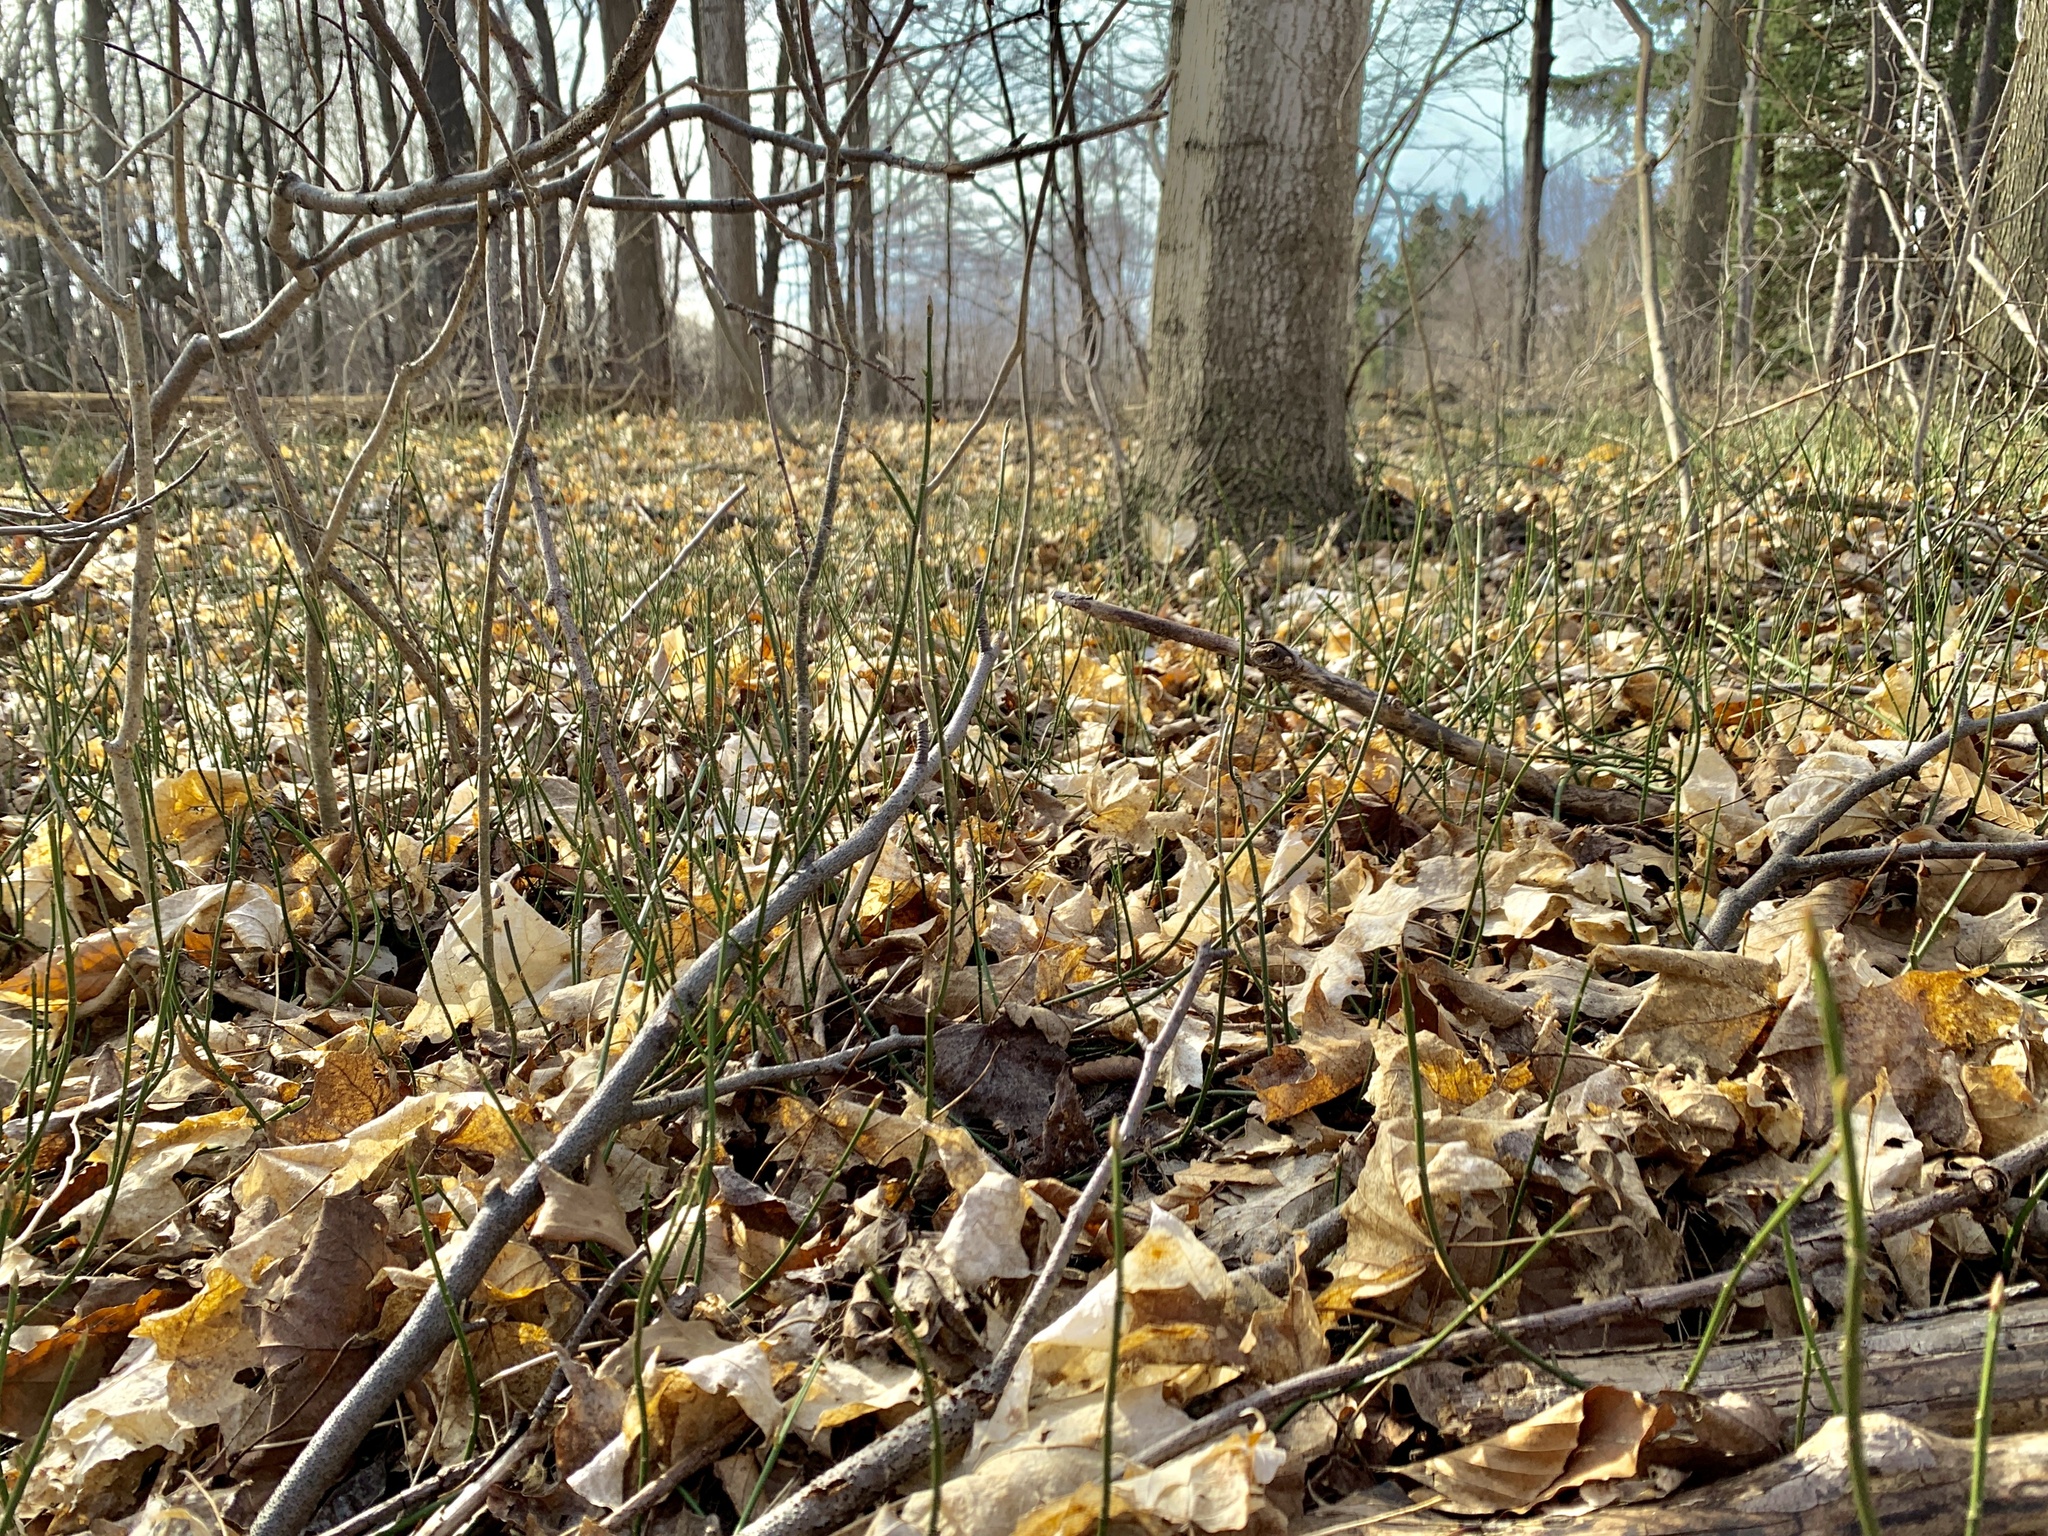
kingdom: Plantae
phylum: Tracheophyta
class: Magnoliopsida
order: Celastrales
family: Celastraceae
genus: Euonymus
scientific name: Euonymus obovatus
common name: Running strawberry-bush
